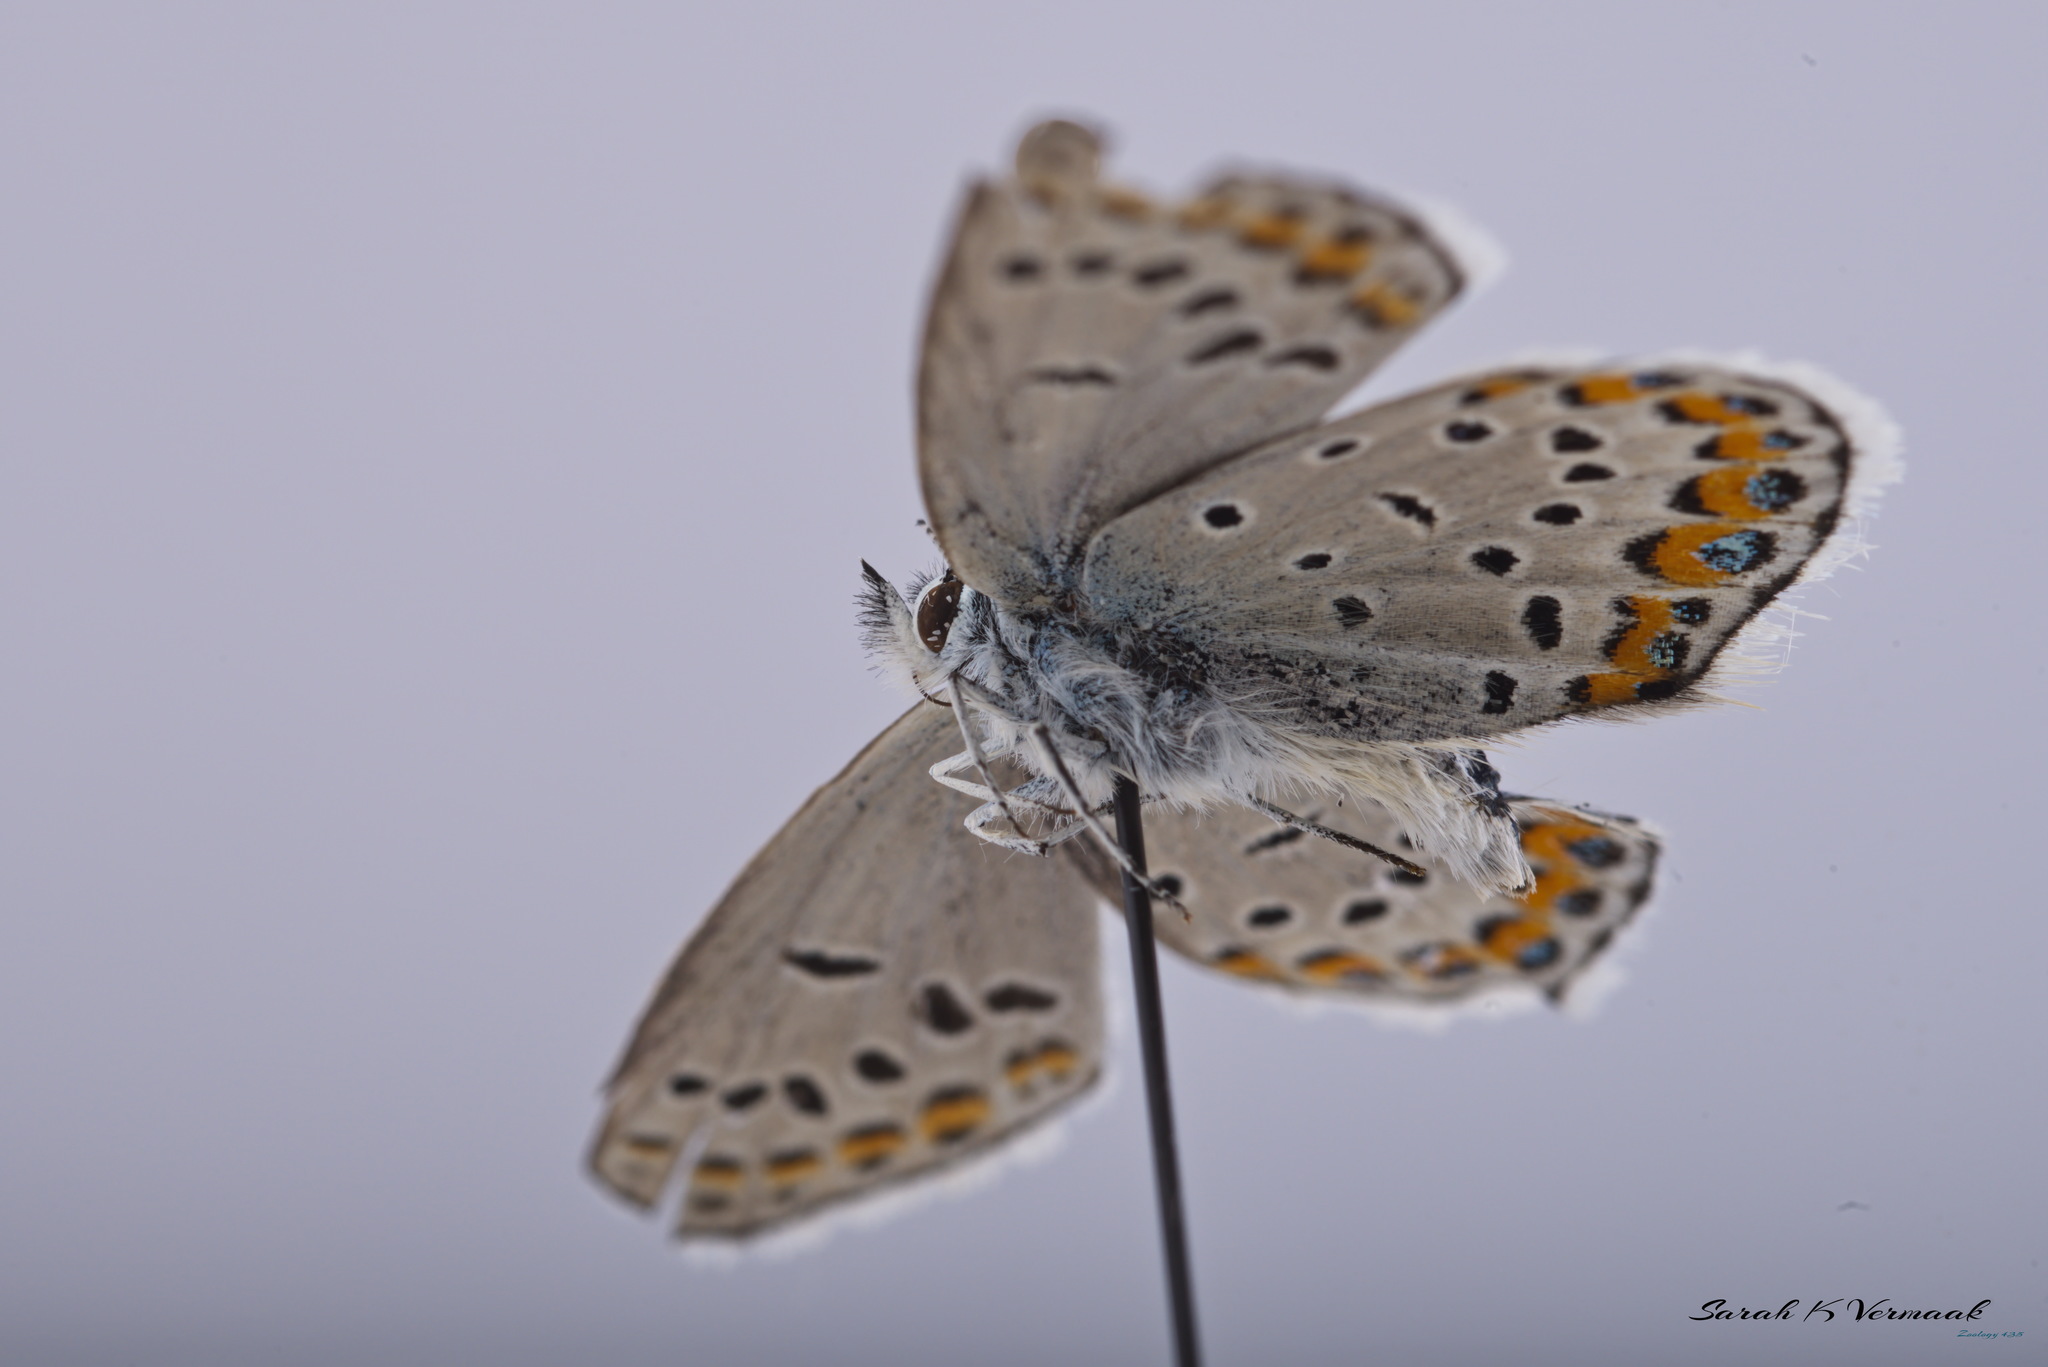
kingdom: Animalia
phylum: Arthropoda
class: Insecta
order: Lepidoptera
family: Lycaenidae
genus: Lycaeides
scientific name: Lycaeides melissa
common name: Melissa blue
